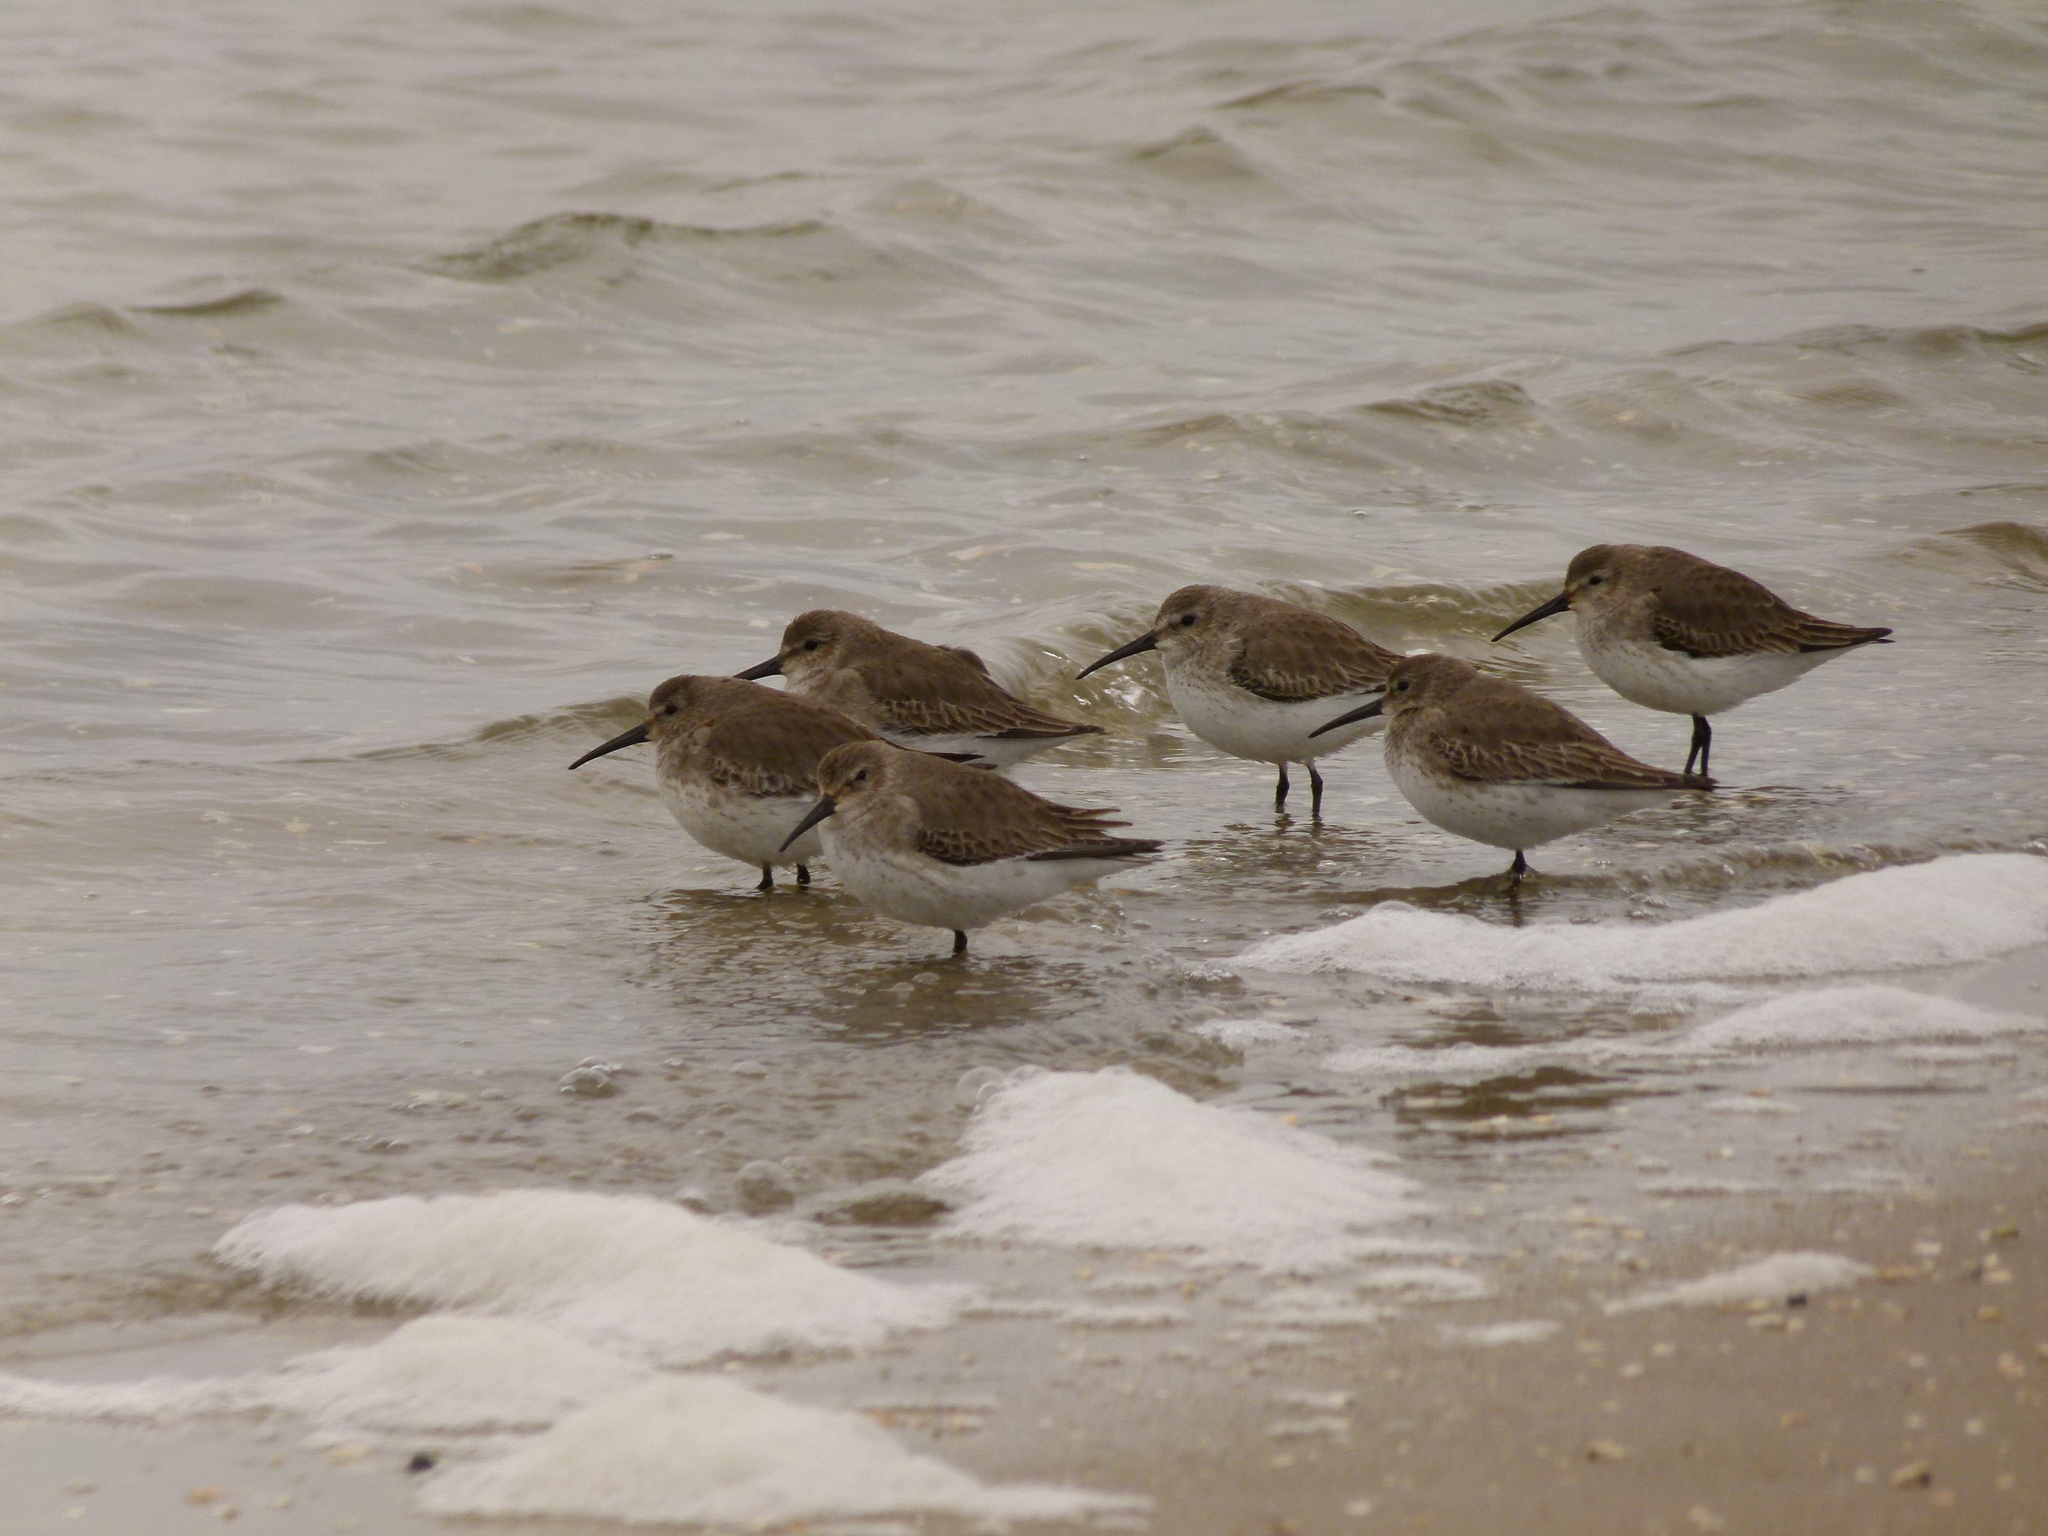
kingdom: Animalia
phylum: Chordata
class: Aves
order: Charadriiformes
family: Scolopacidae
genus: Calidris
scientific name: Calidris alpina
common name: Dunlin
